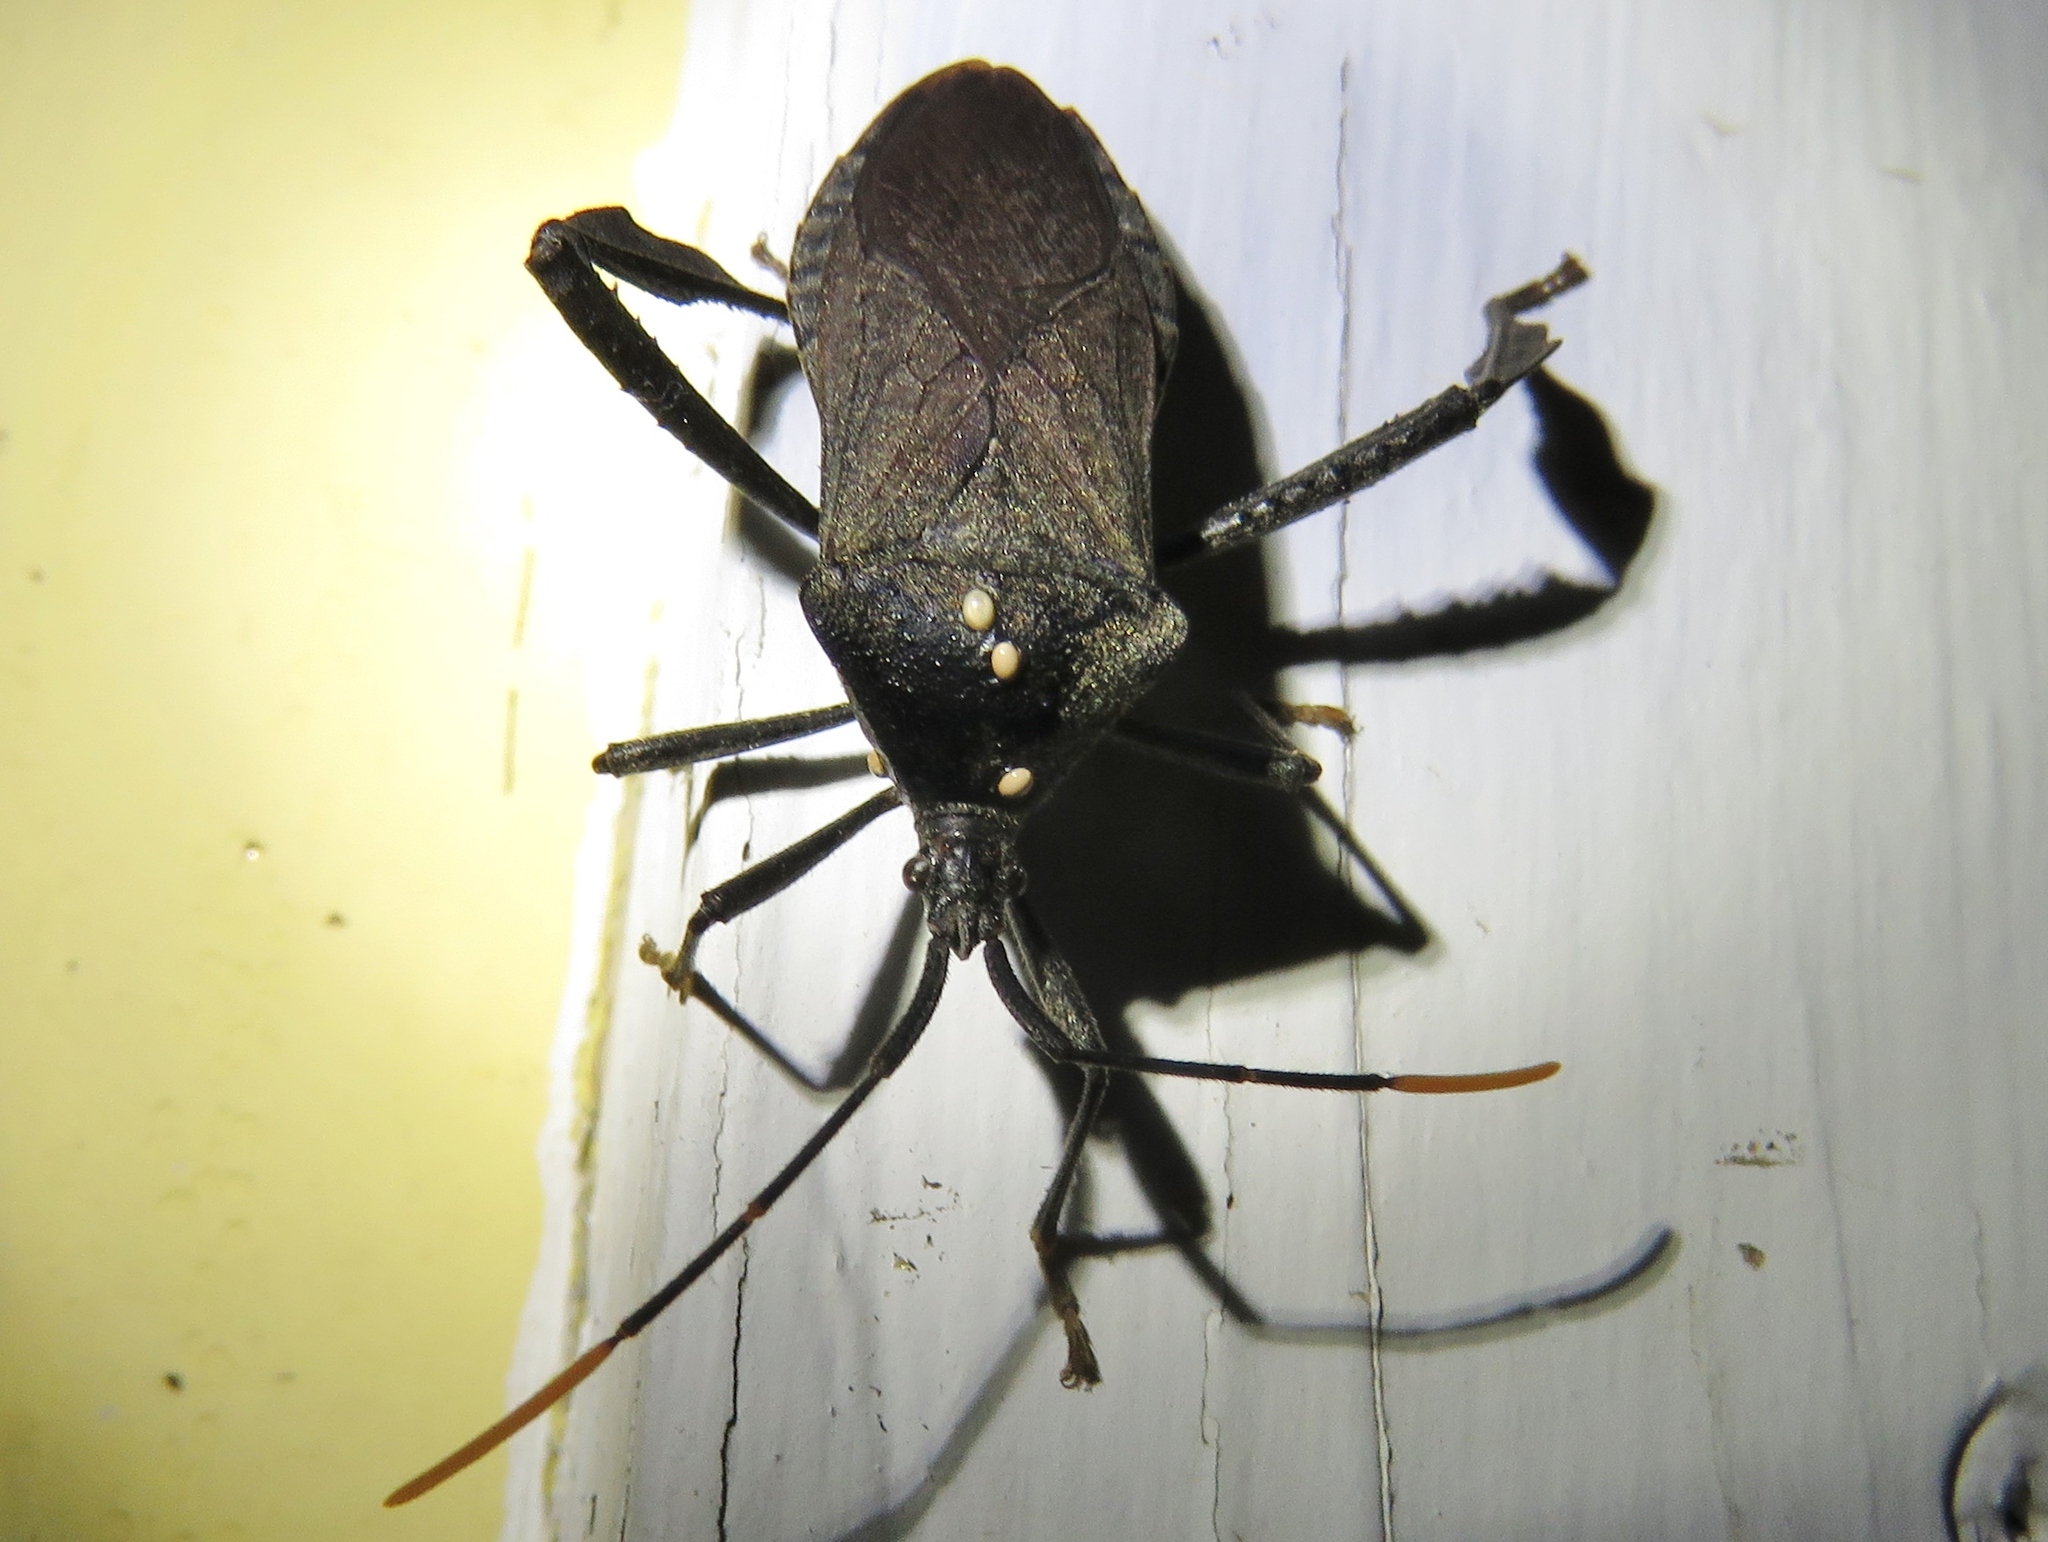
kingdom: Animalia
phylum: Arthropoda
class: Insecta
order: Hemiptera
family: Coreidae
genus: Acanthocephala
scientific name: Acanthocephala terminalis
